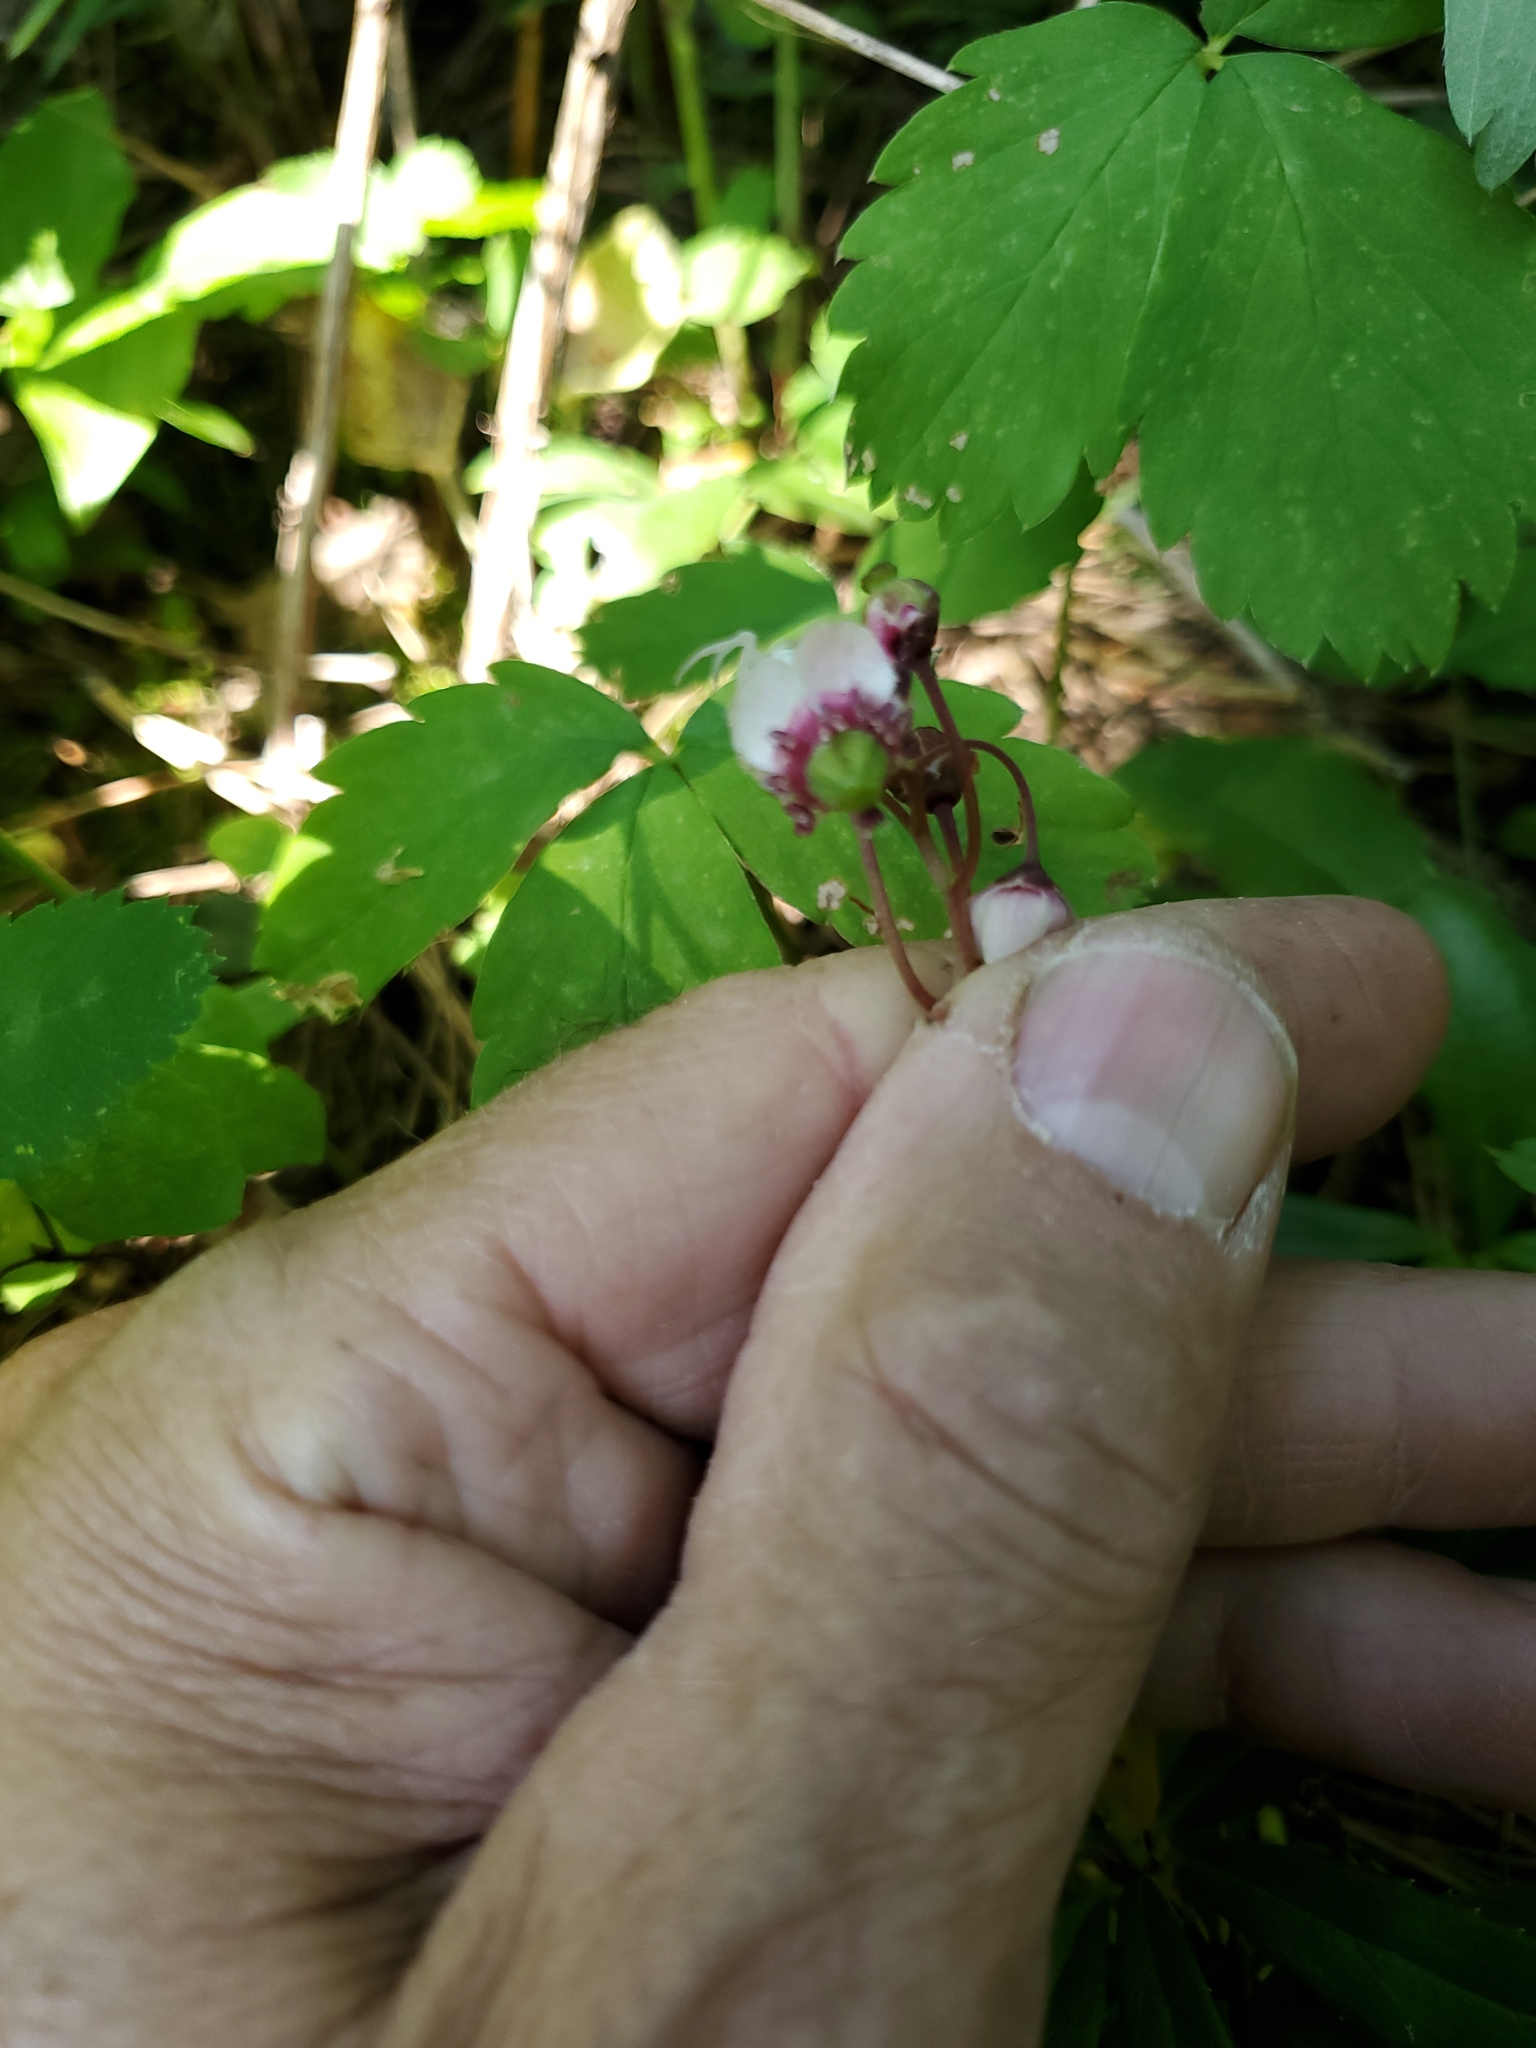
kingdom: Plantae
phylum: Tracheophyta
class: Magnoliopsida
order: Ericales
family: Ericaceae
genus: Chimaphila
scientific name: Chimaphila umbellata
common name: Pipsissewa
